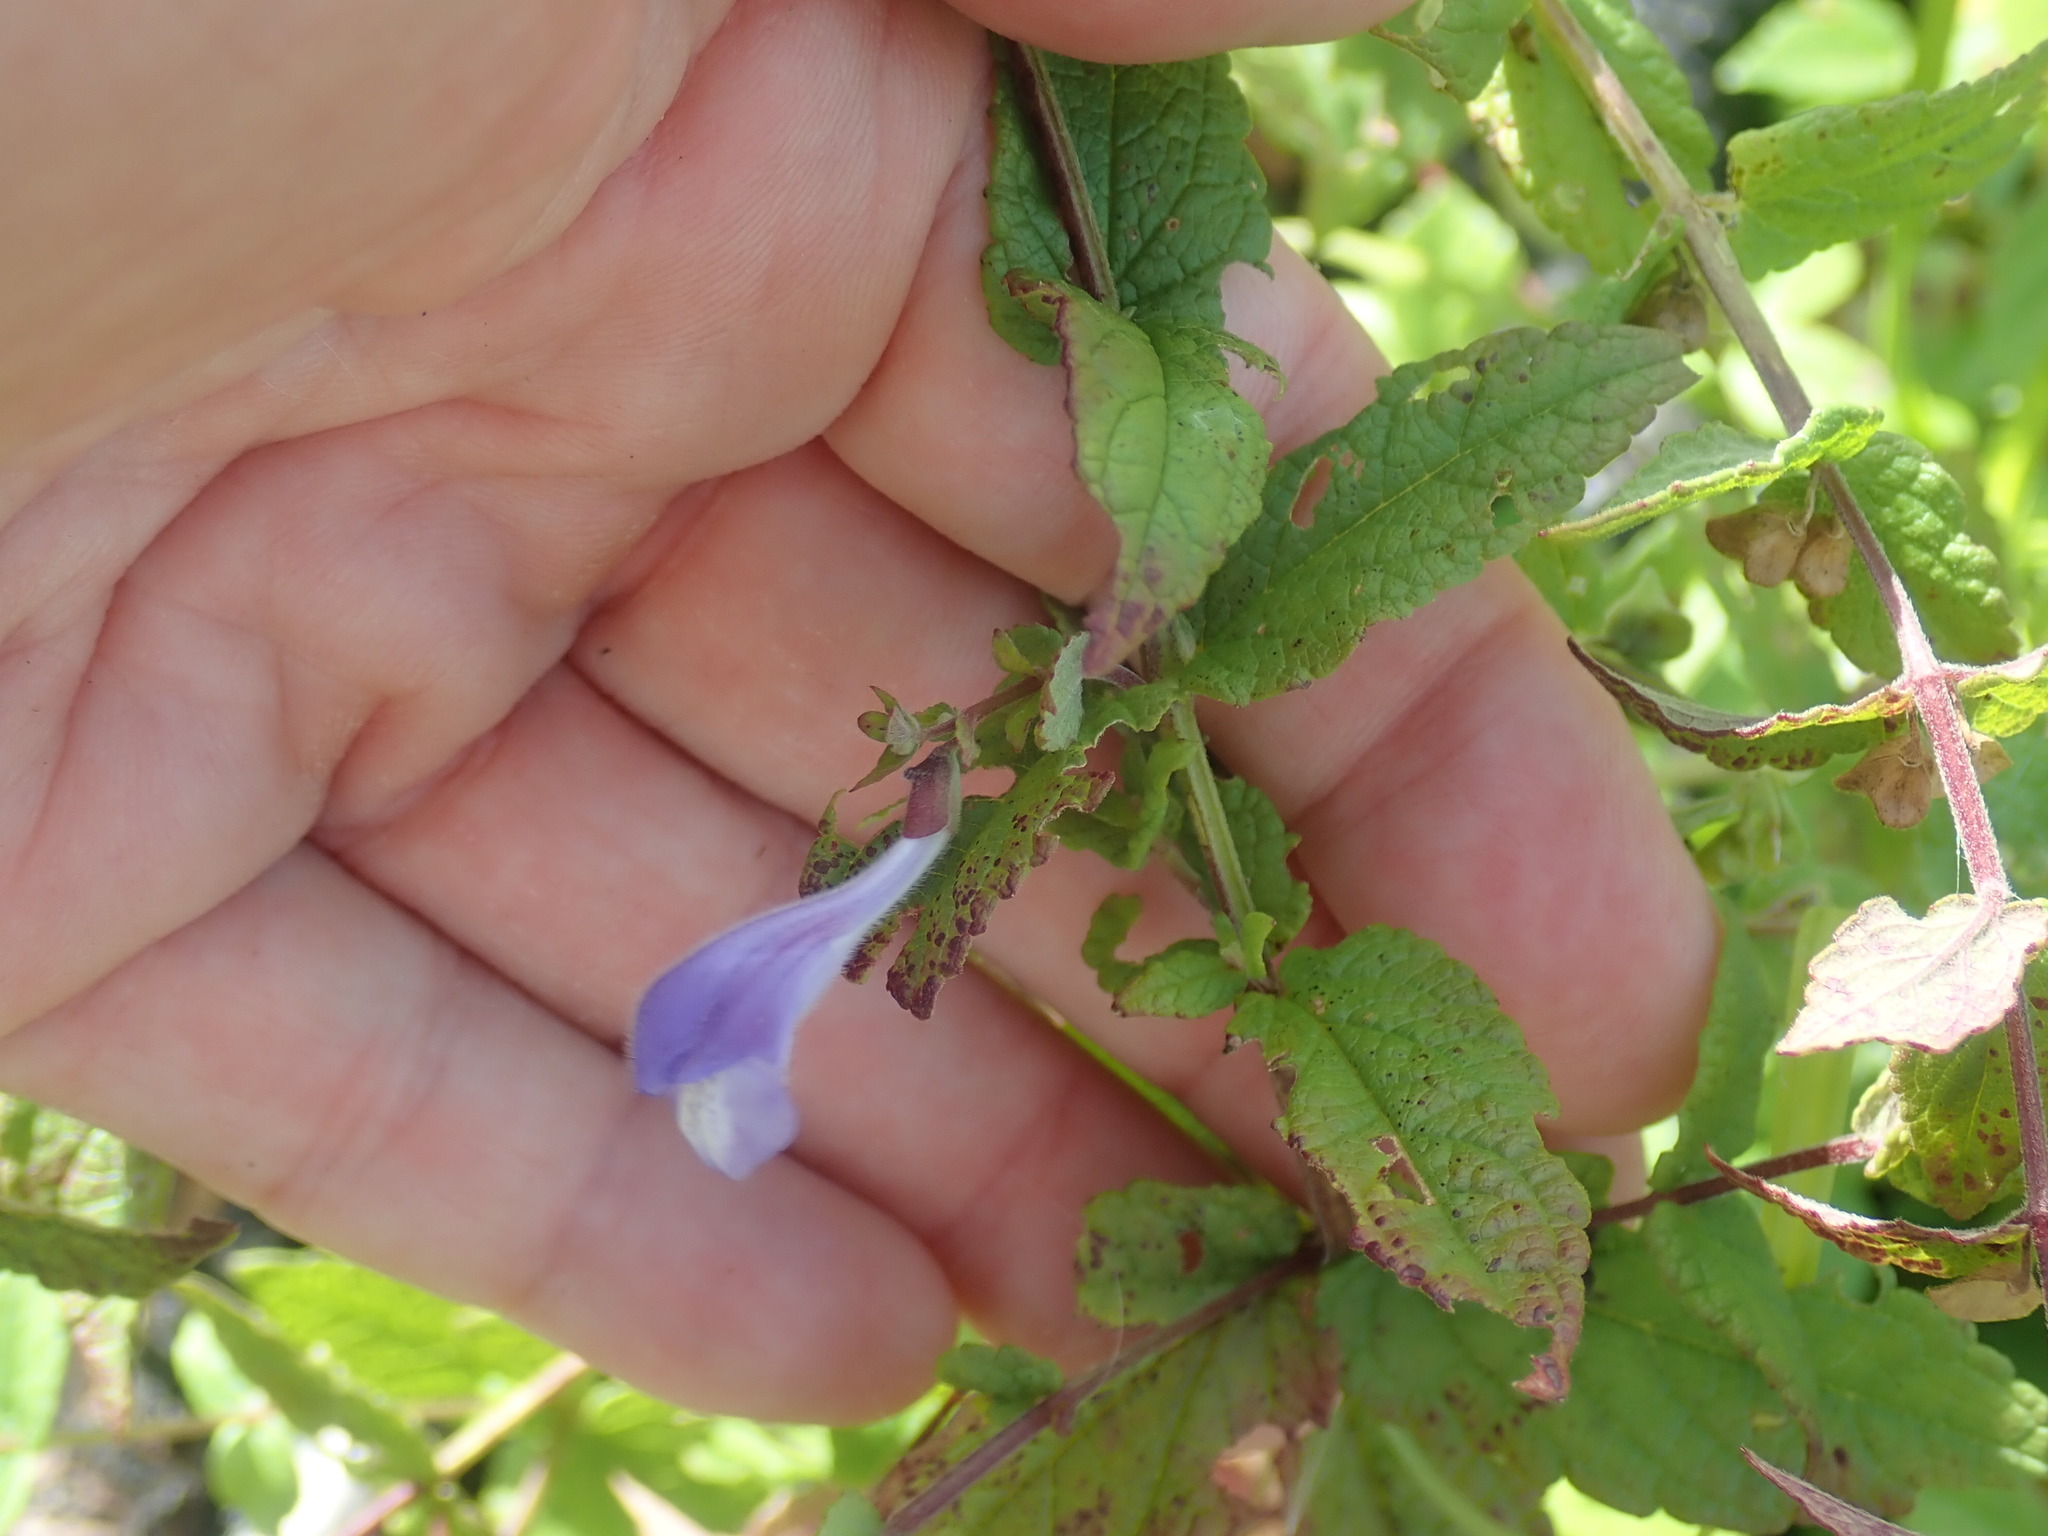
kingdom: Plantae
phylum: Tracheophyta
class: Magnoliopsida
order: Lamiales
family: Lamiaceae
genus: Scutellaria
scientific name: Scutellaria galericulata
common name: Skullcap
